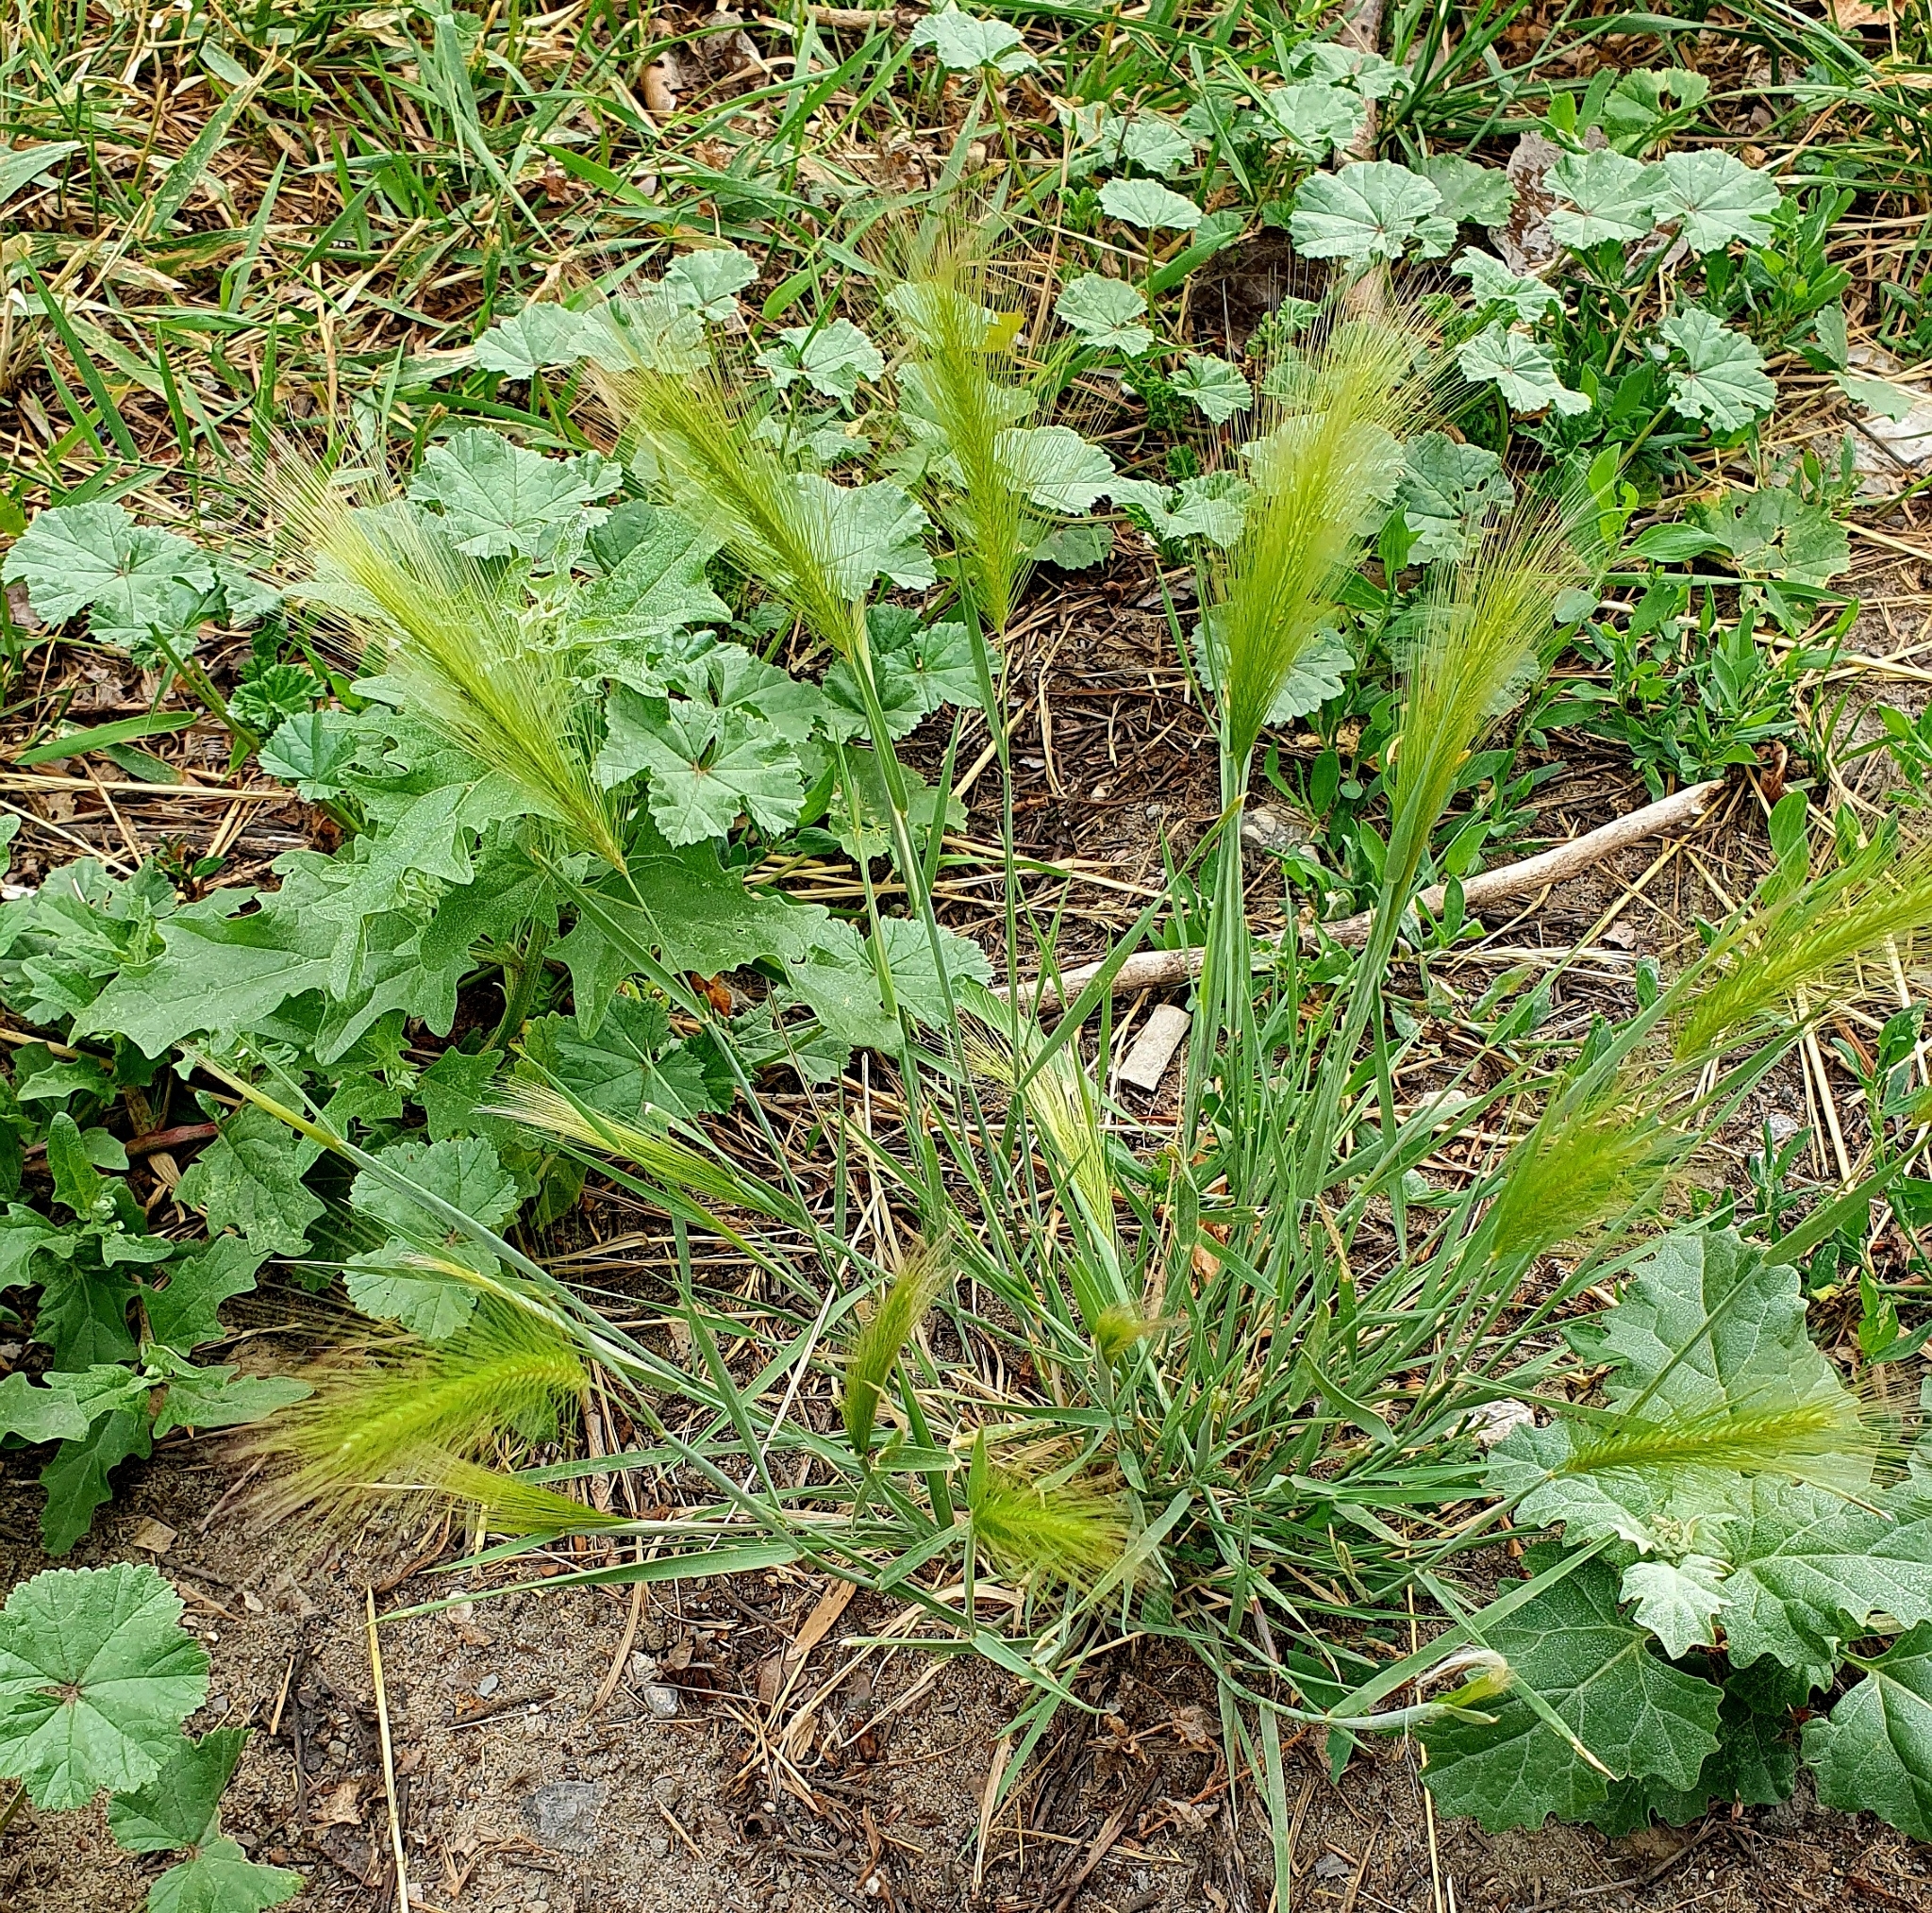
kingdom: Plantae
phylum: Tracheophyta
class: Liliopsida
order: Poales
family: Poaceae
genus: Hordeum
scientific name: Hordeum jubatum
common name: Foxtail barley
